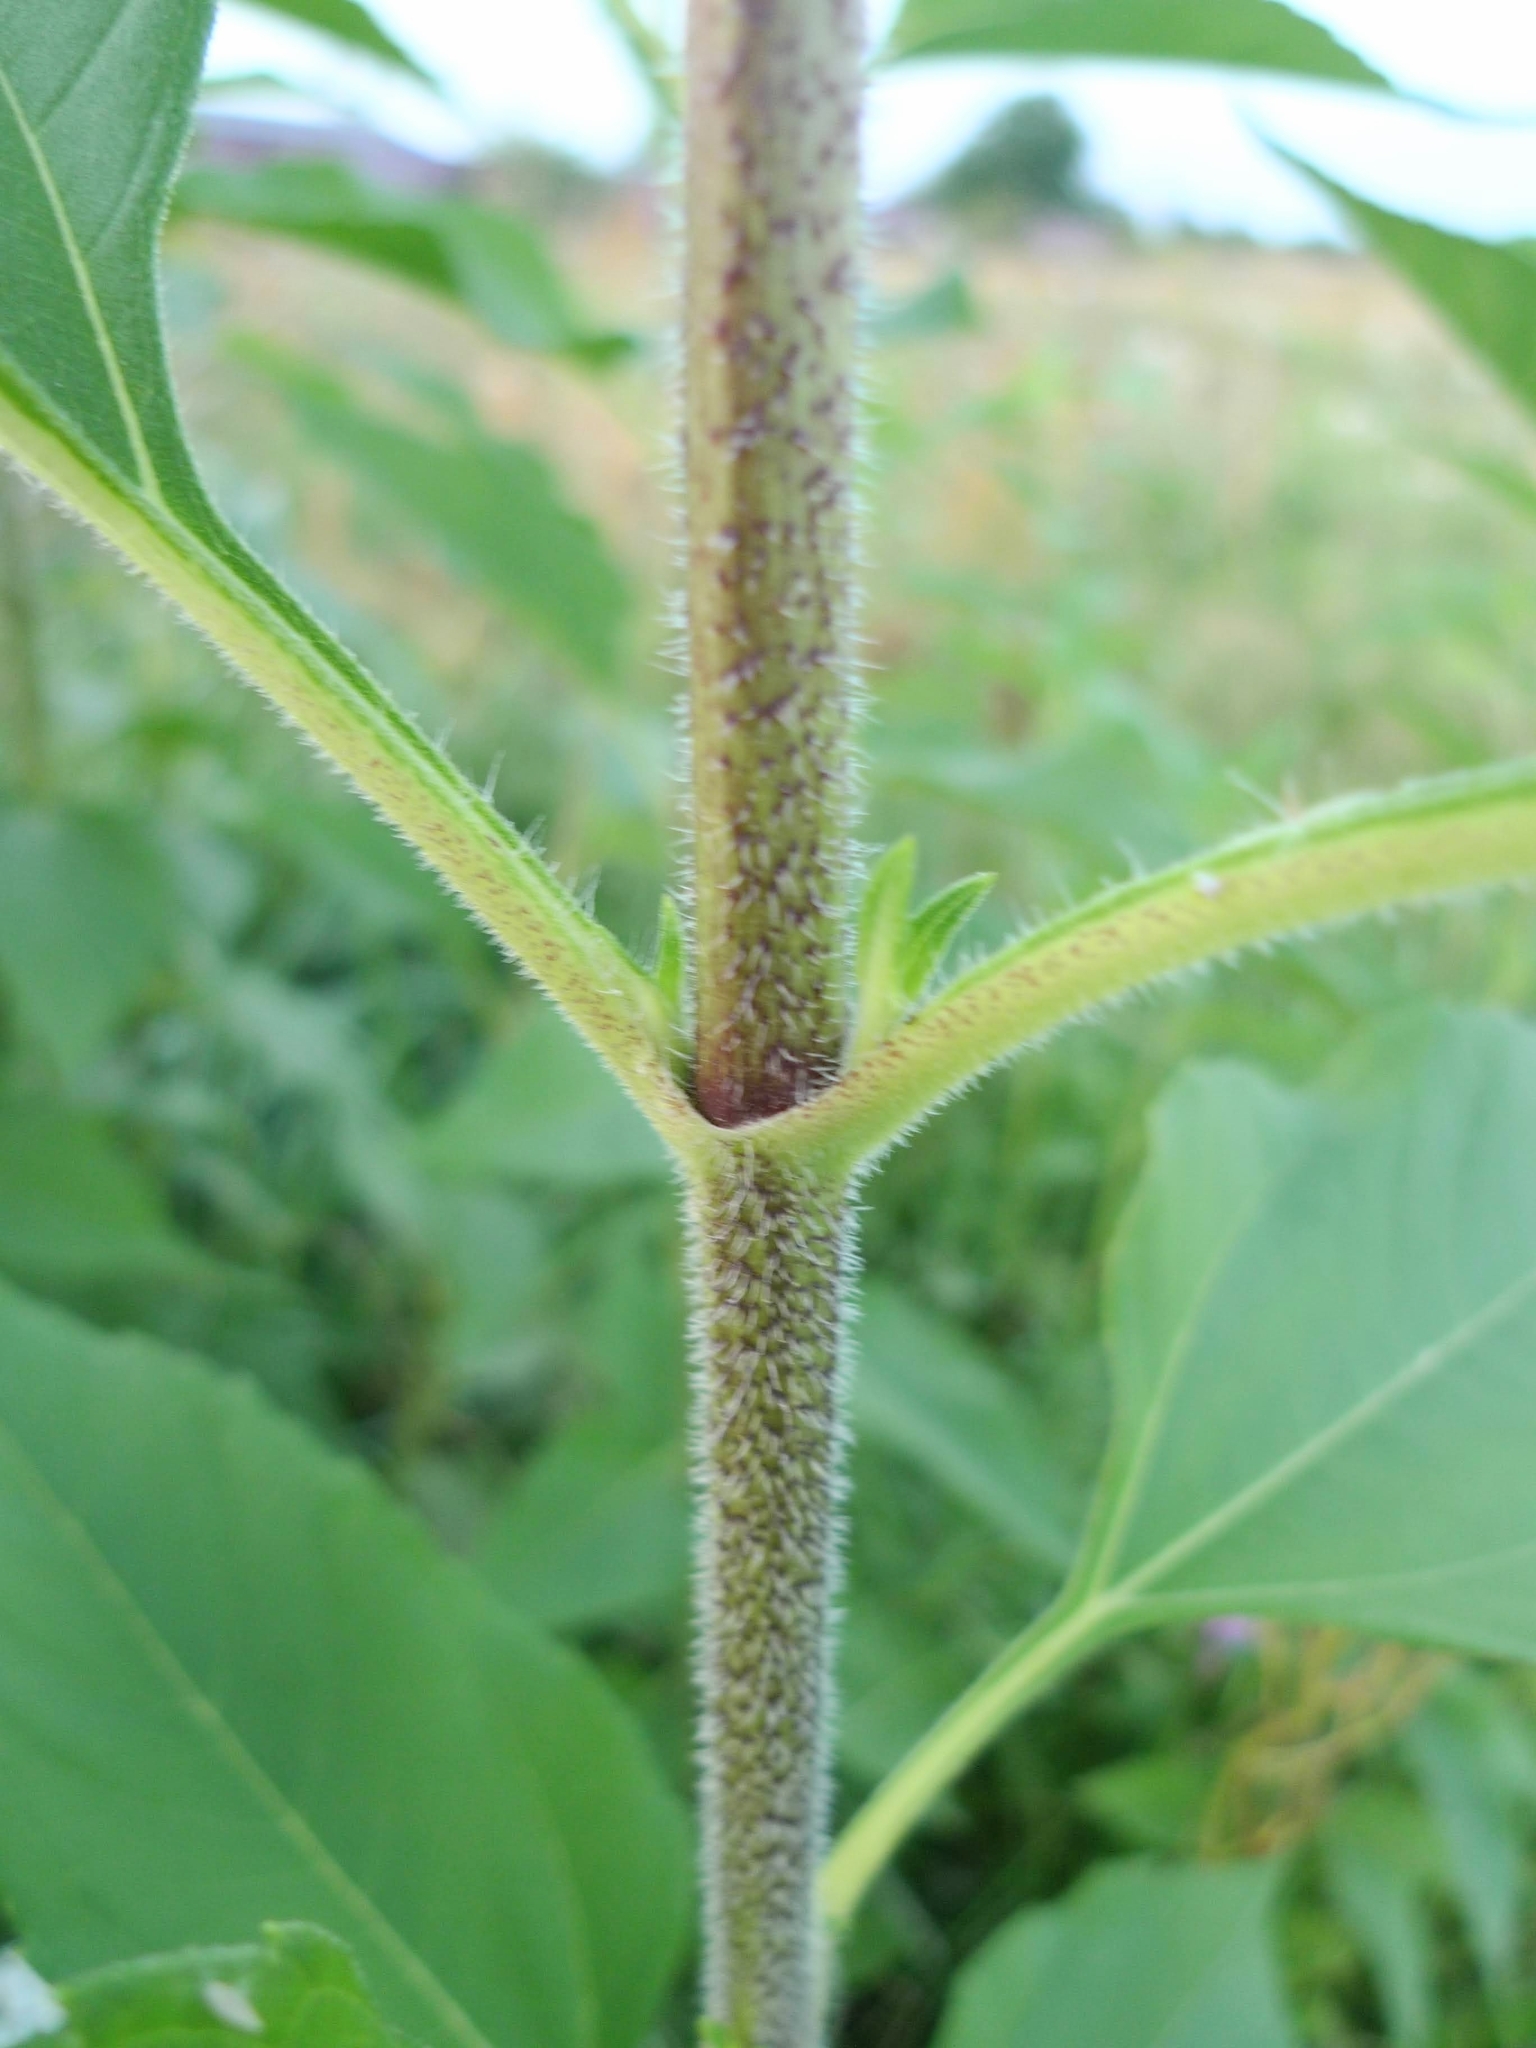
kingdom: Plantae
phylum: Tracheophyta
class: Magnoliopsida
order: Asterales
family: Asteraceae
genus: Helianthus
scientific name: Helianthus tuberosus
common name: Jerusalem artichoke
